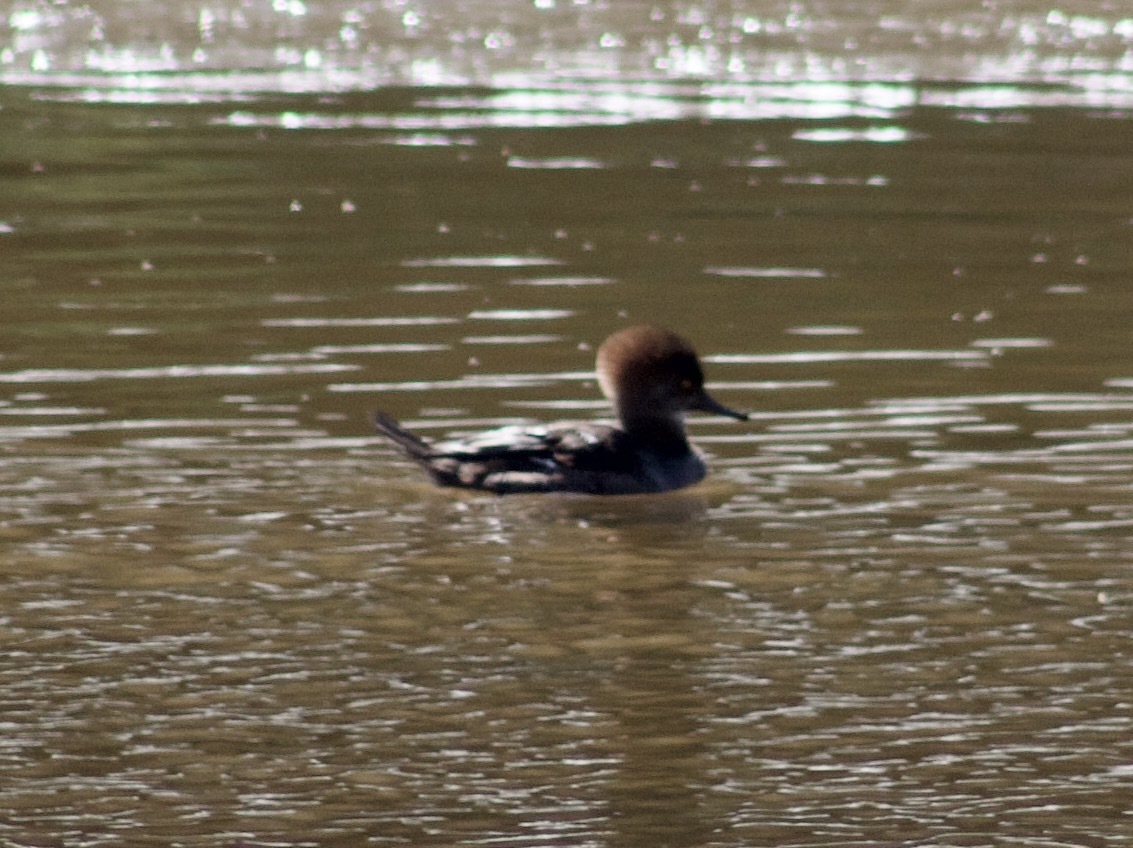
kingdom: Animalia
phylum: Chordata
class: Aves
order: Anseriformes
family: Anatidae
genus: Lophodytes
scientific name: Lophodytes cucullatus
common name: Hooded merganser
